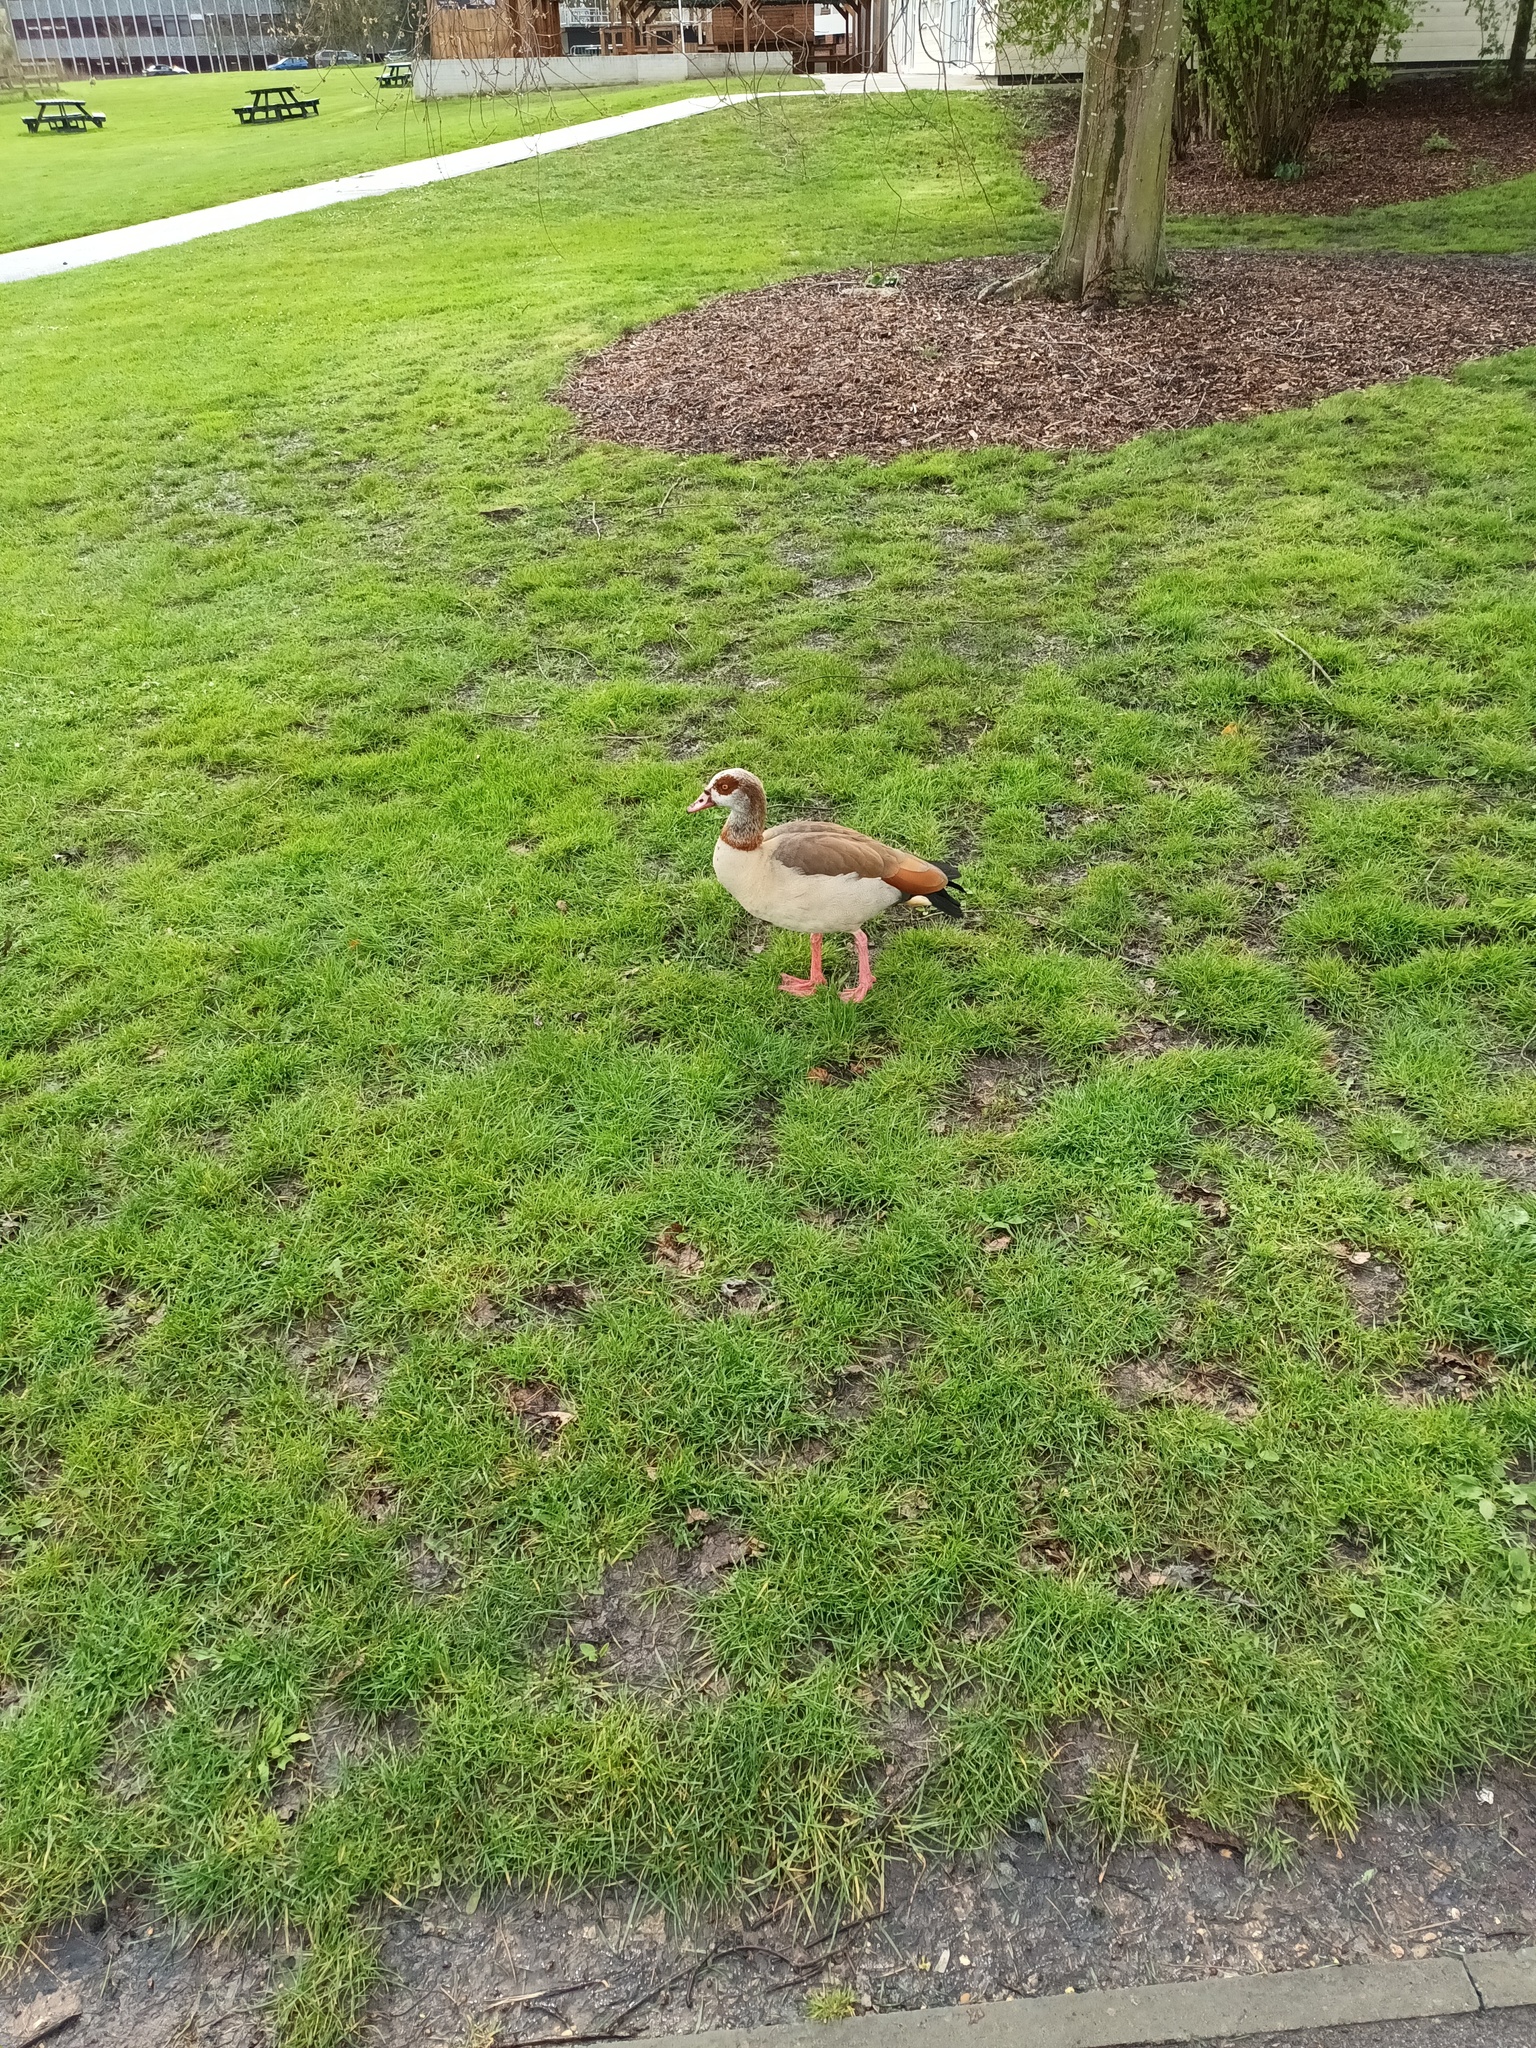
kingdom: Animalia
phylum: Chordata
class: Aves
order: Anseriformes
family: Anatidae
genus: Alopochen
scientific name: Alopochen aegyptiaca
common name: Egyptian goose
